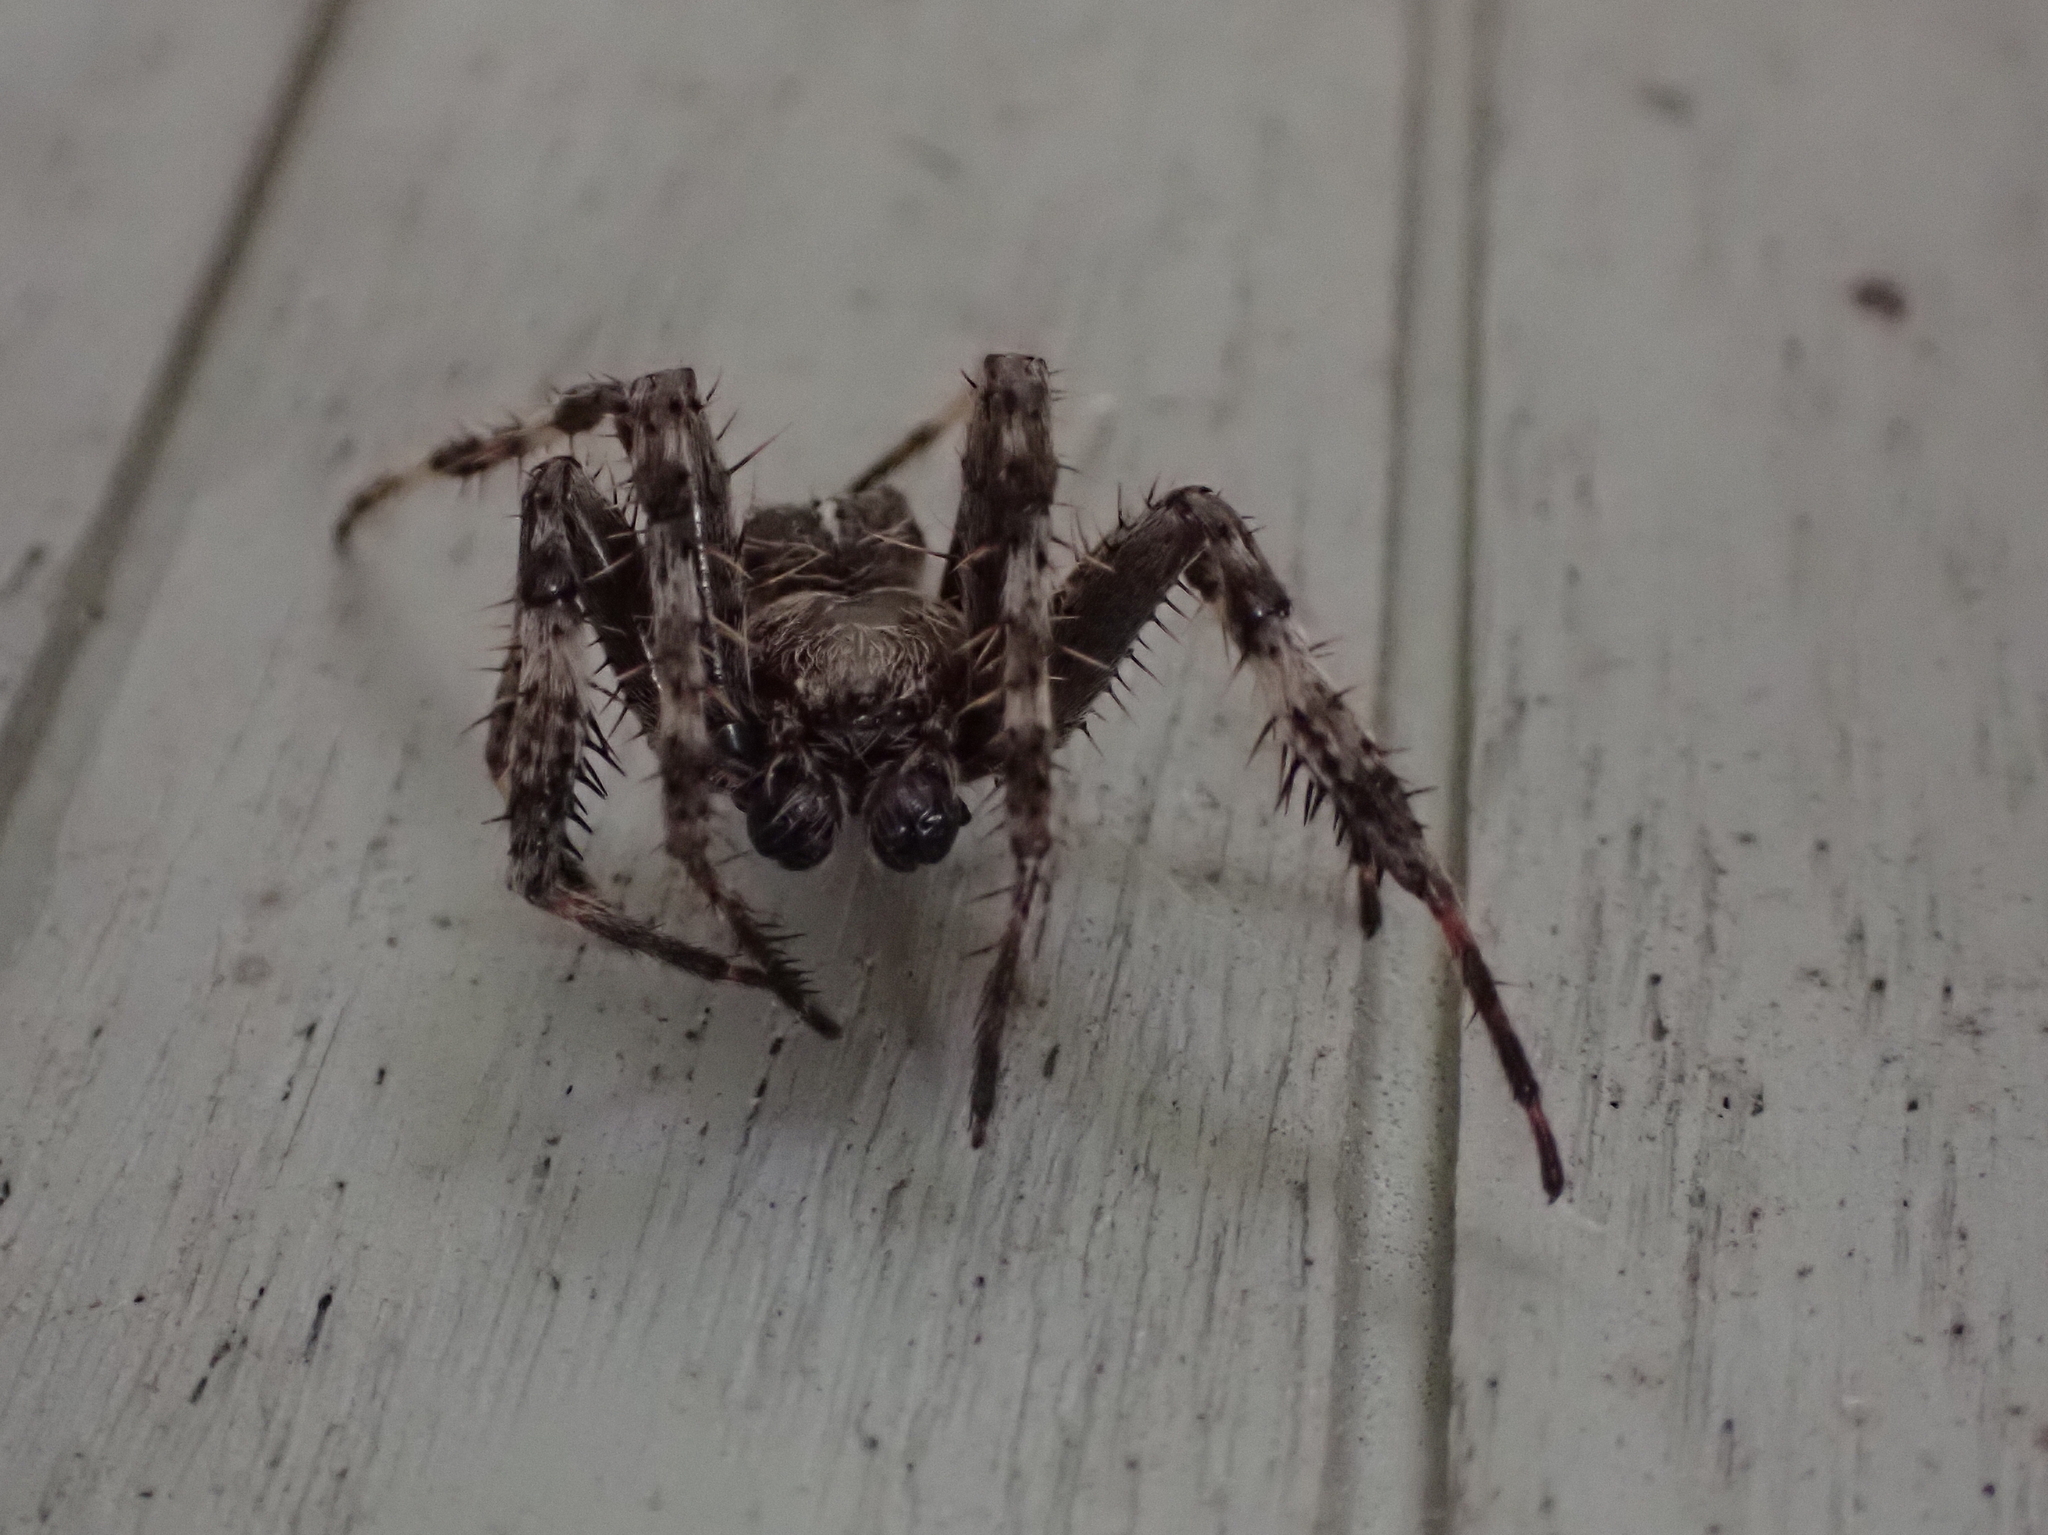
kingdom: Animalia
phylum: Arthropoda
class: Arachnida
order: Araneae
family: Araneidae
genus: Araneus
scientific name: Araneus saevus
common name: Fierce orbweaver
